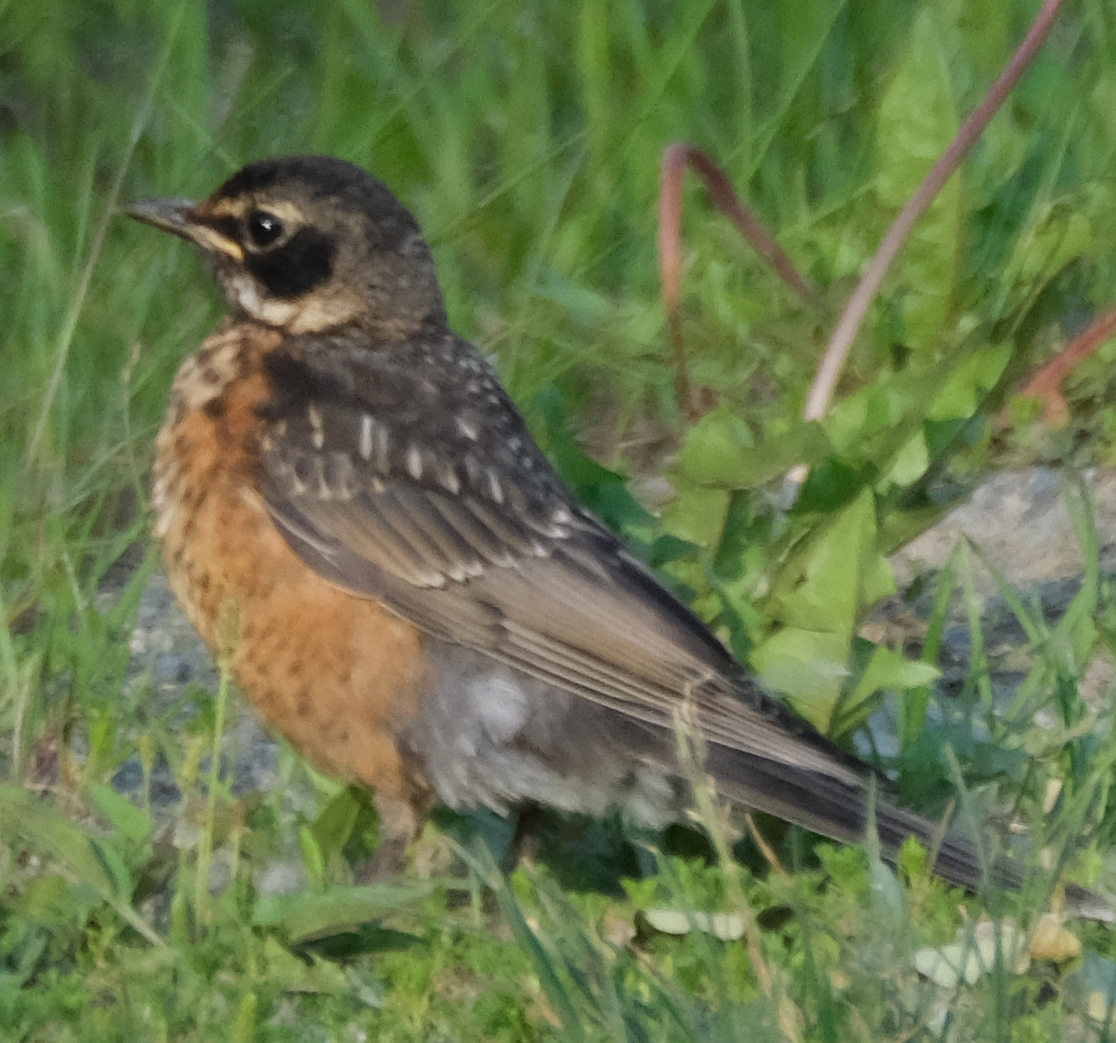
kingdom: Animalia
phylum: Chordata
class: Aves
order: Passeriformes
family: Turdidae
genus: Turdus
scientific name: Turdus migratorius
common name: American robin
